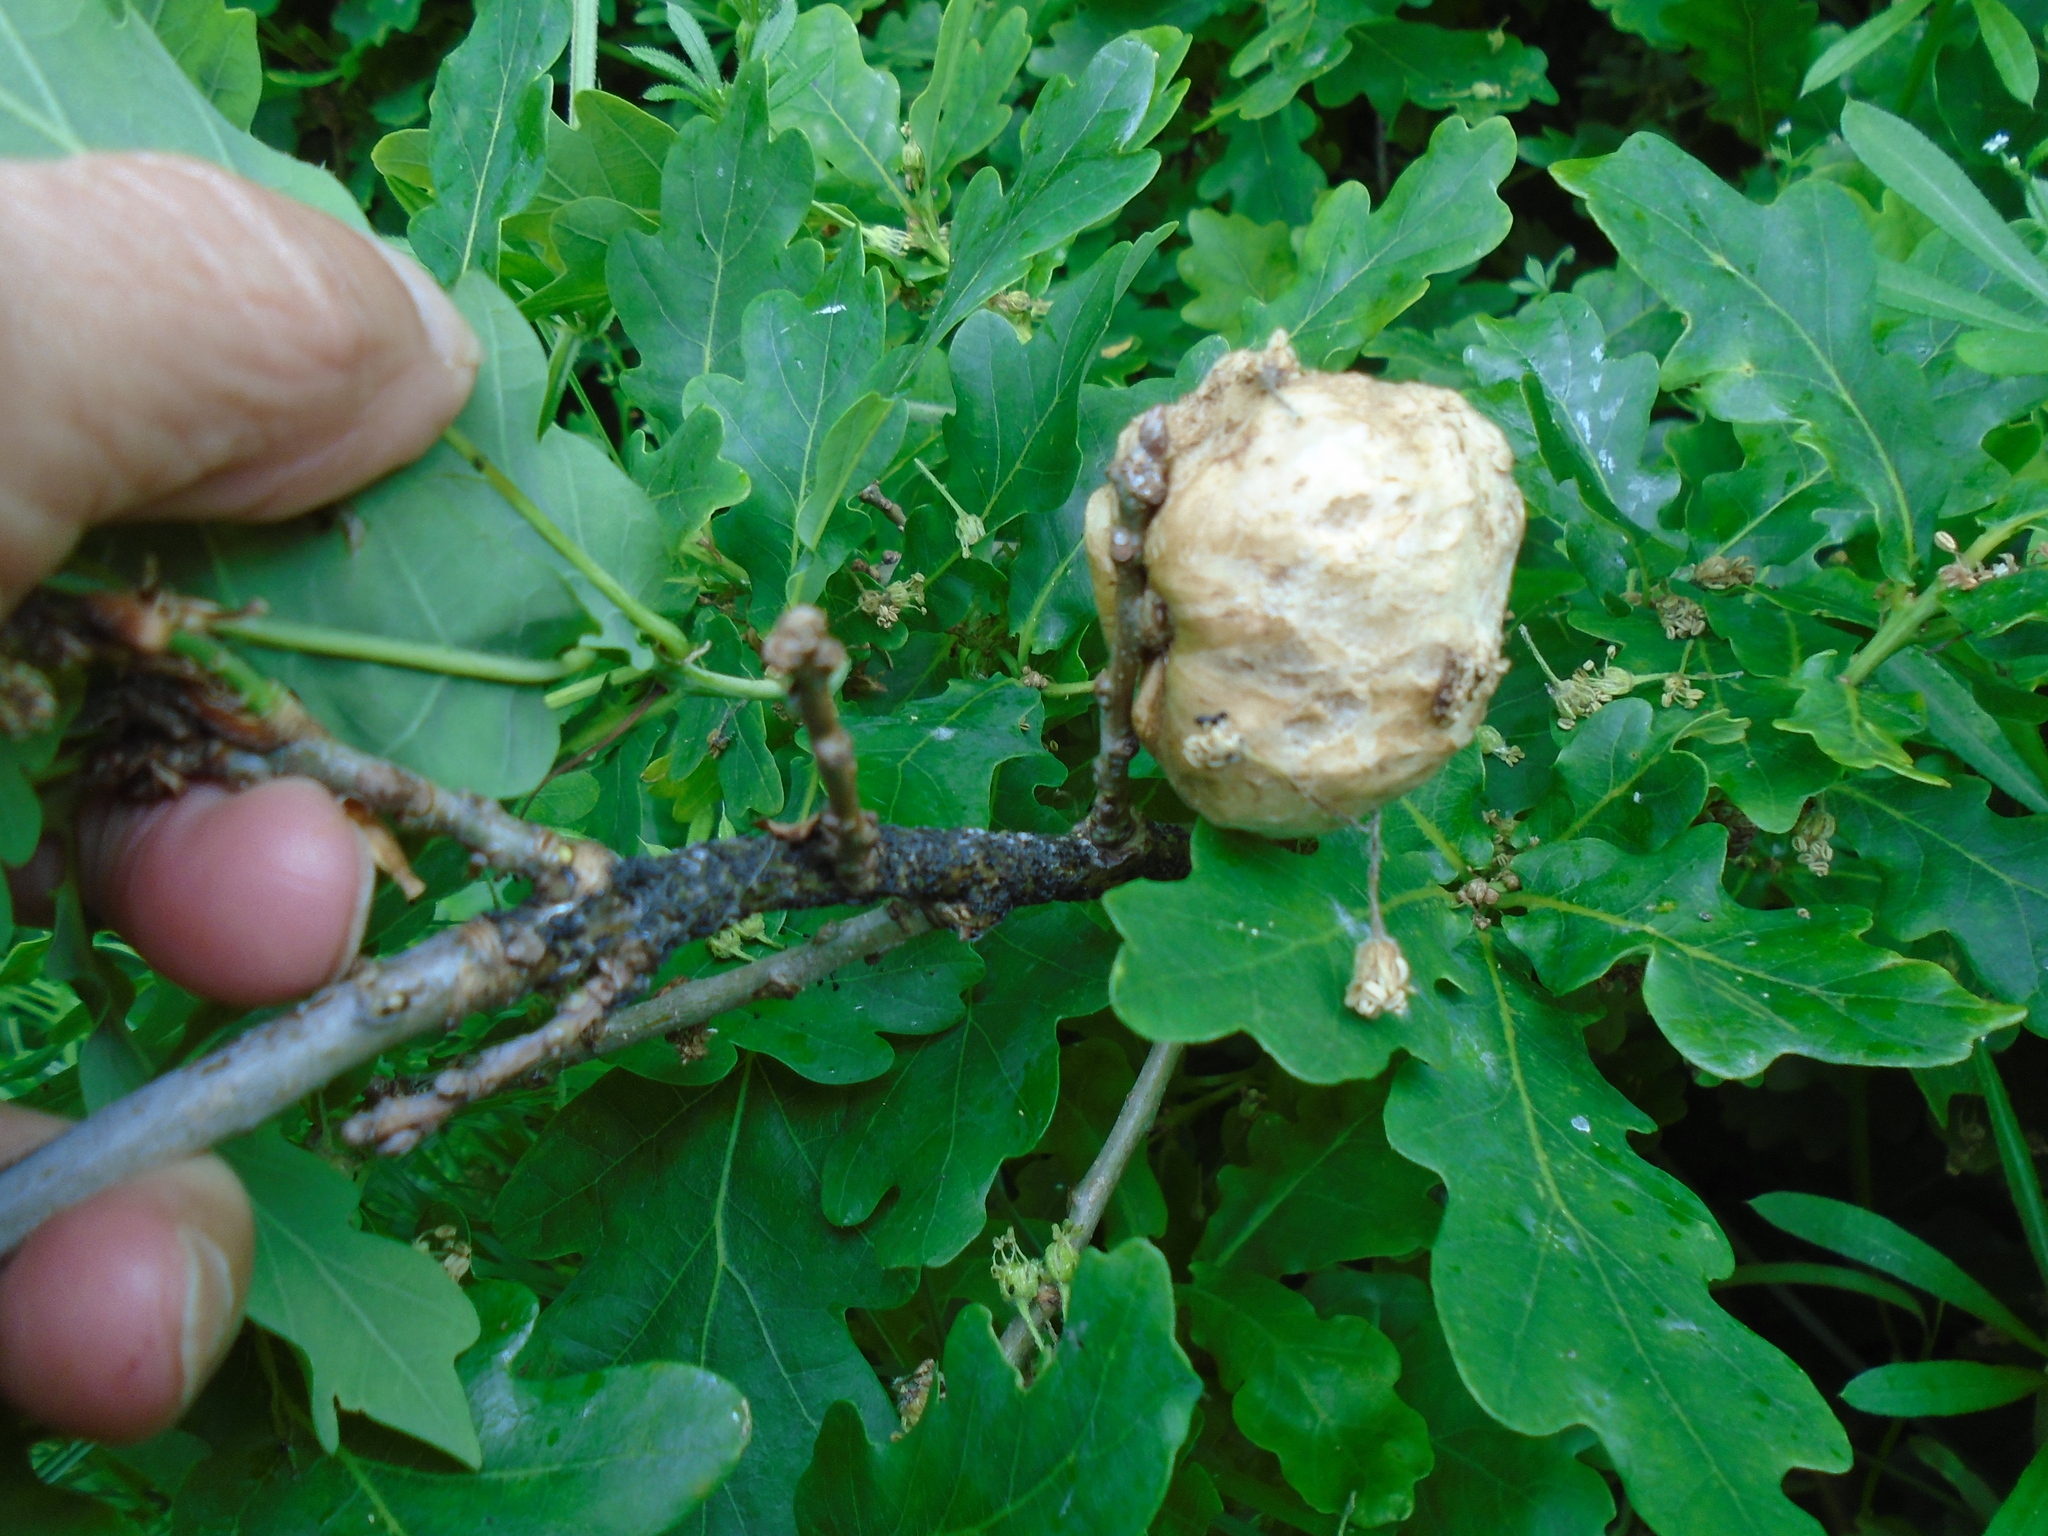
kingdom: Animalia
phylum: Arthropoda
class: Insecta
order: Hymenoptera
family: Cynipidae
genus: Biorhiza
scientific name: Biorhiza pallida
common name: Oak apple
